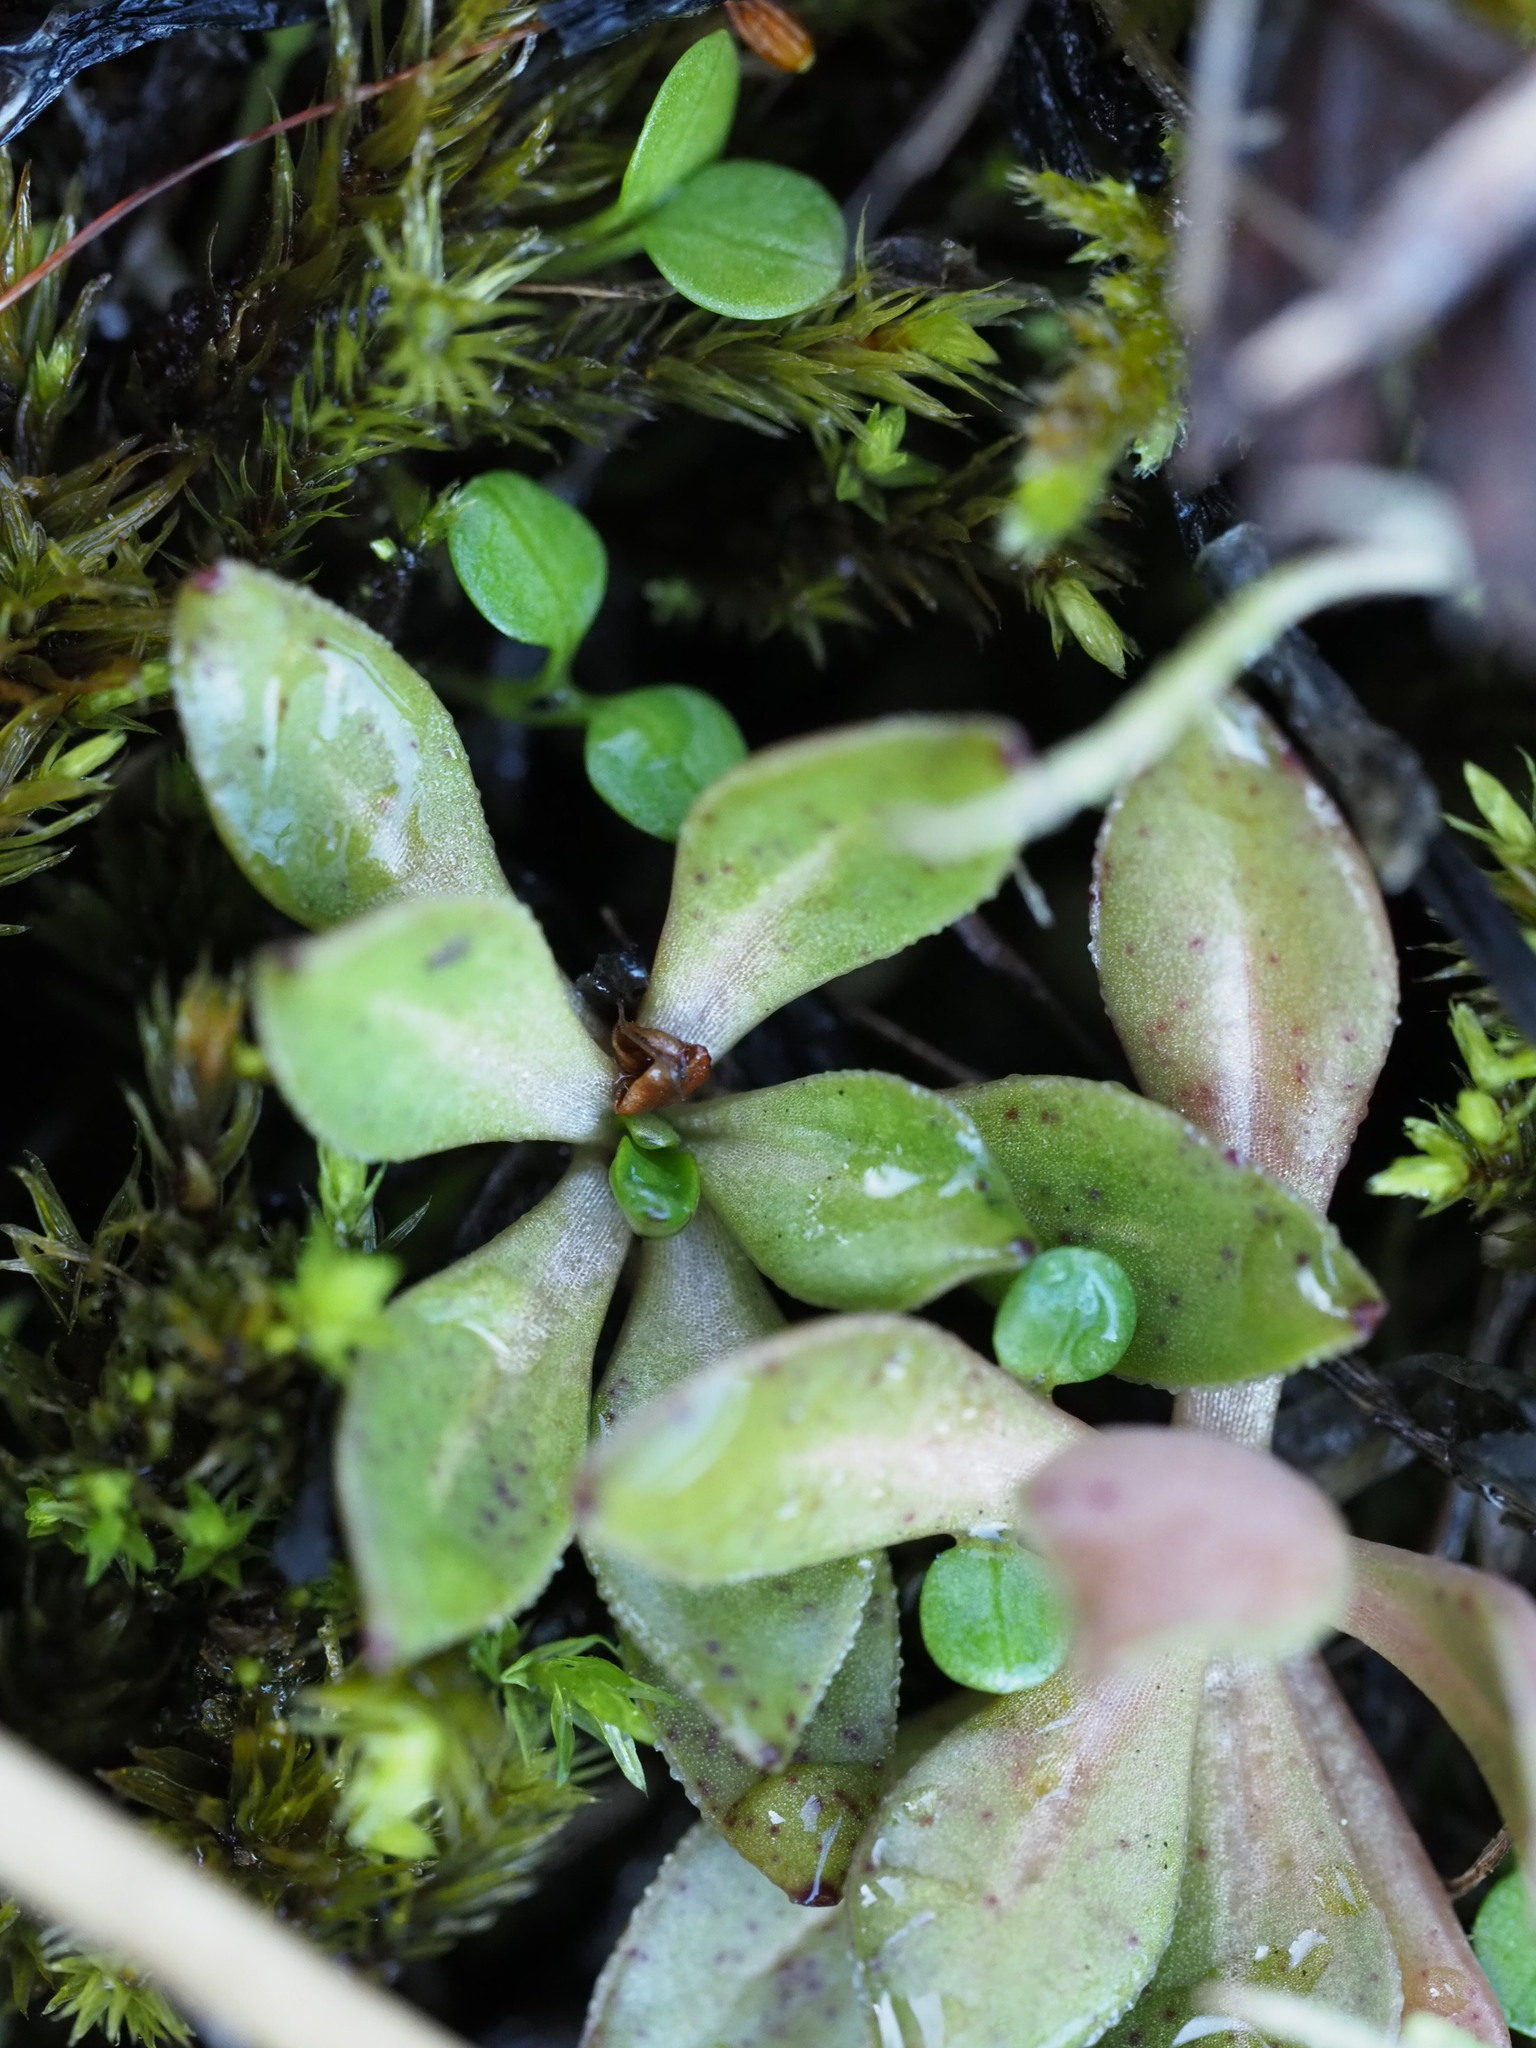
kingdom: Plantae
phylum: Tracheophyta
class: Magnoliopsida
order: Caryophyllales
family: Montiaceae
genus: Montia
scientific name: Montia parvifolia
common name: Small-leaved blinks
